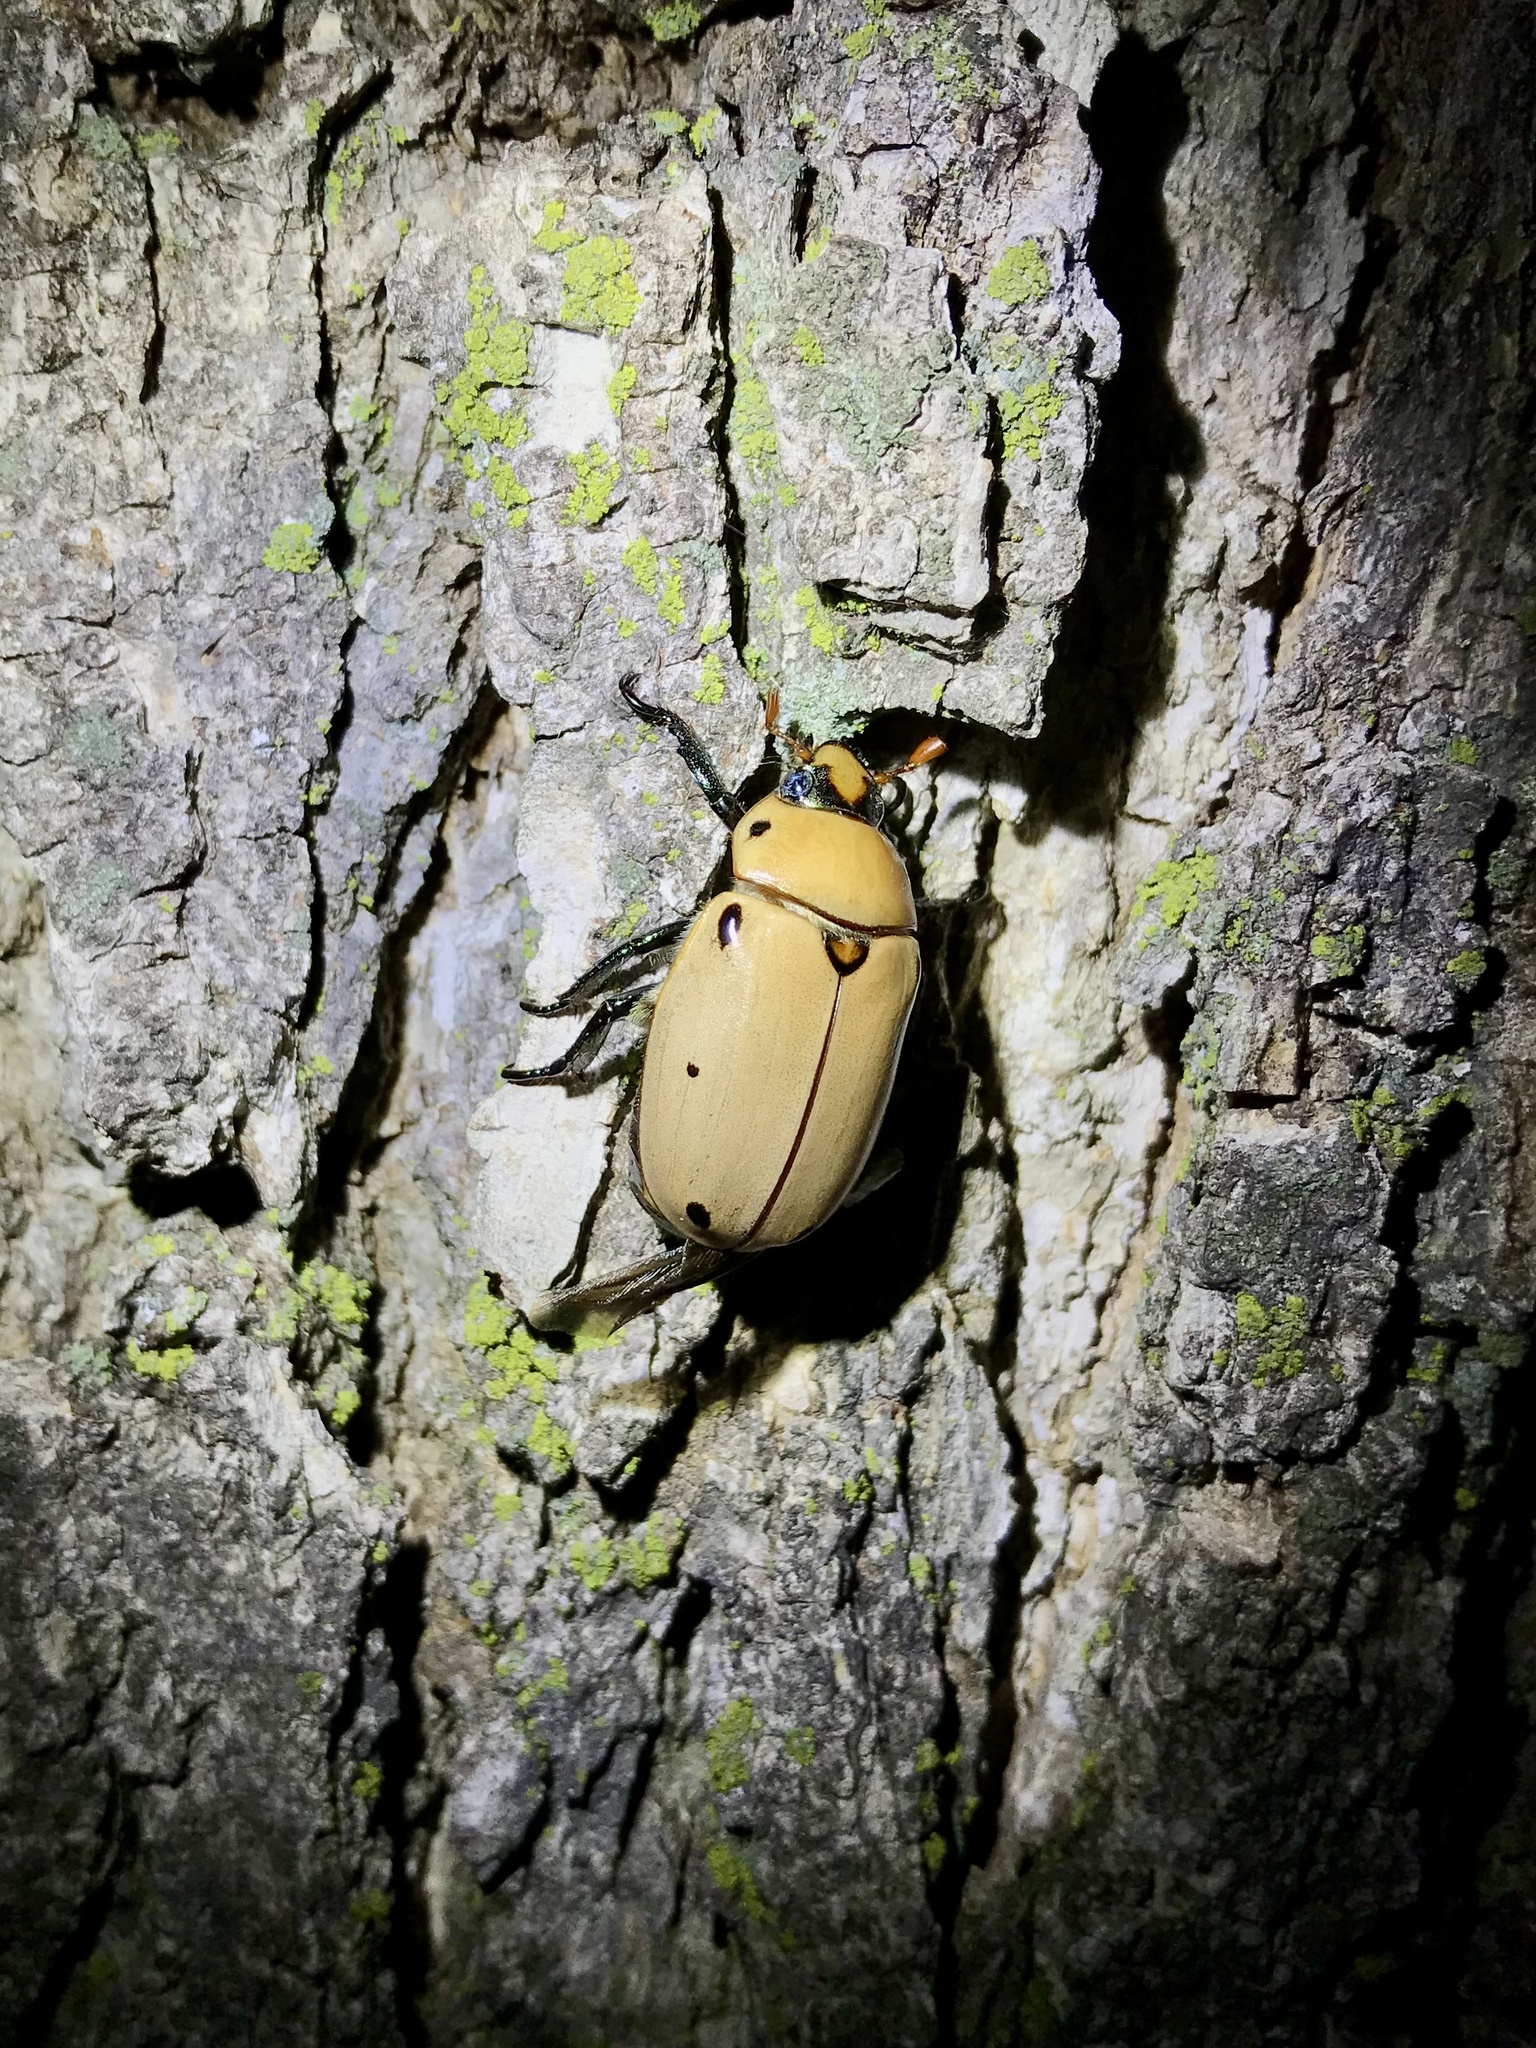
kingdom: Animalia
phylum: Arthropoda
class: Insecta
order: Coleoptera
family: Scarabaeidae
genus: Pelidnota
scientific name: Pelidnota punctata
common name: Grapevine beetle
